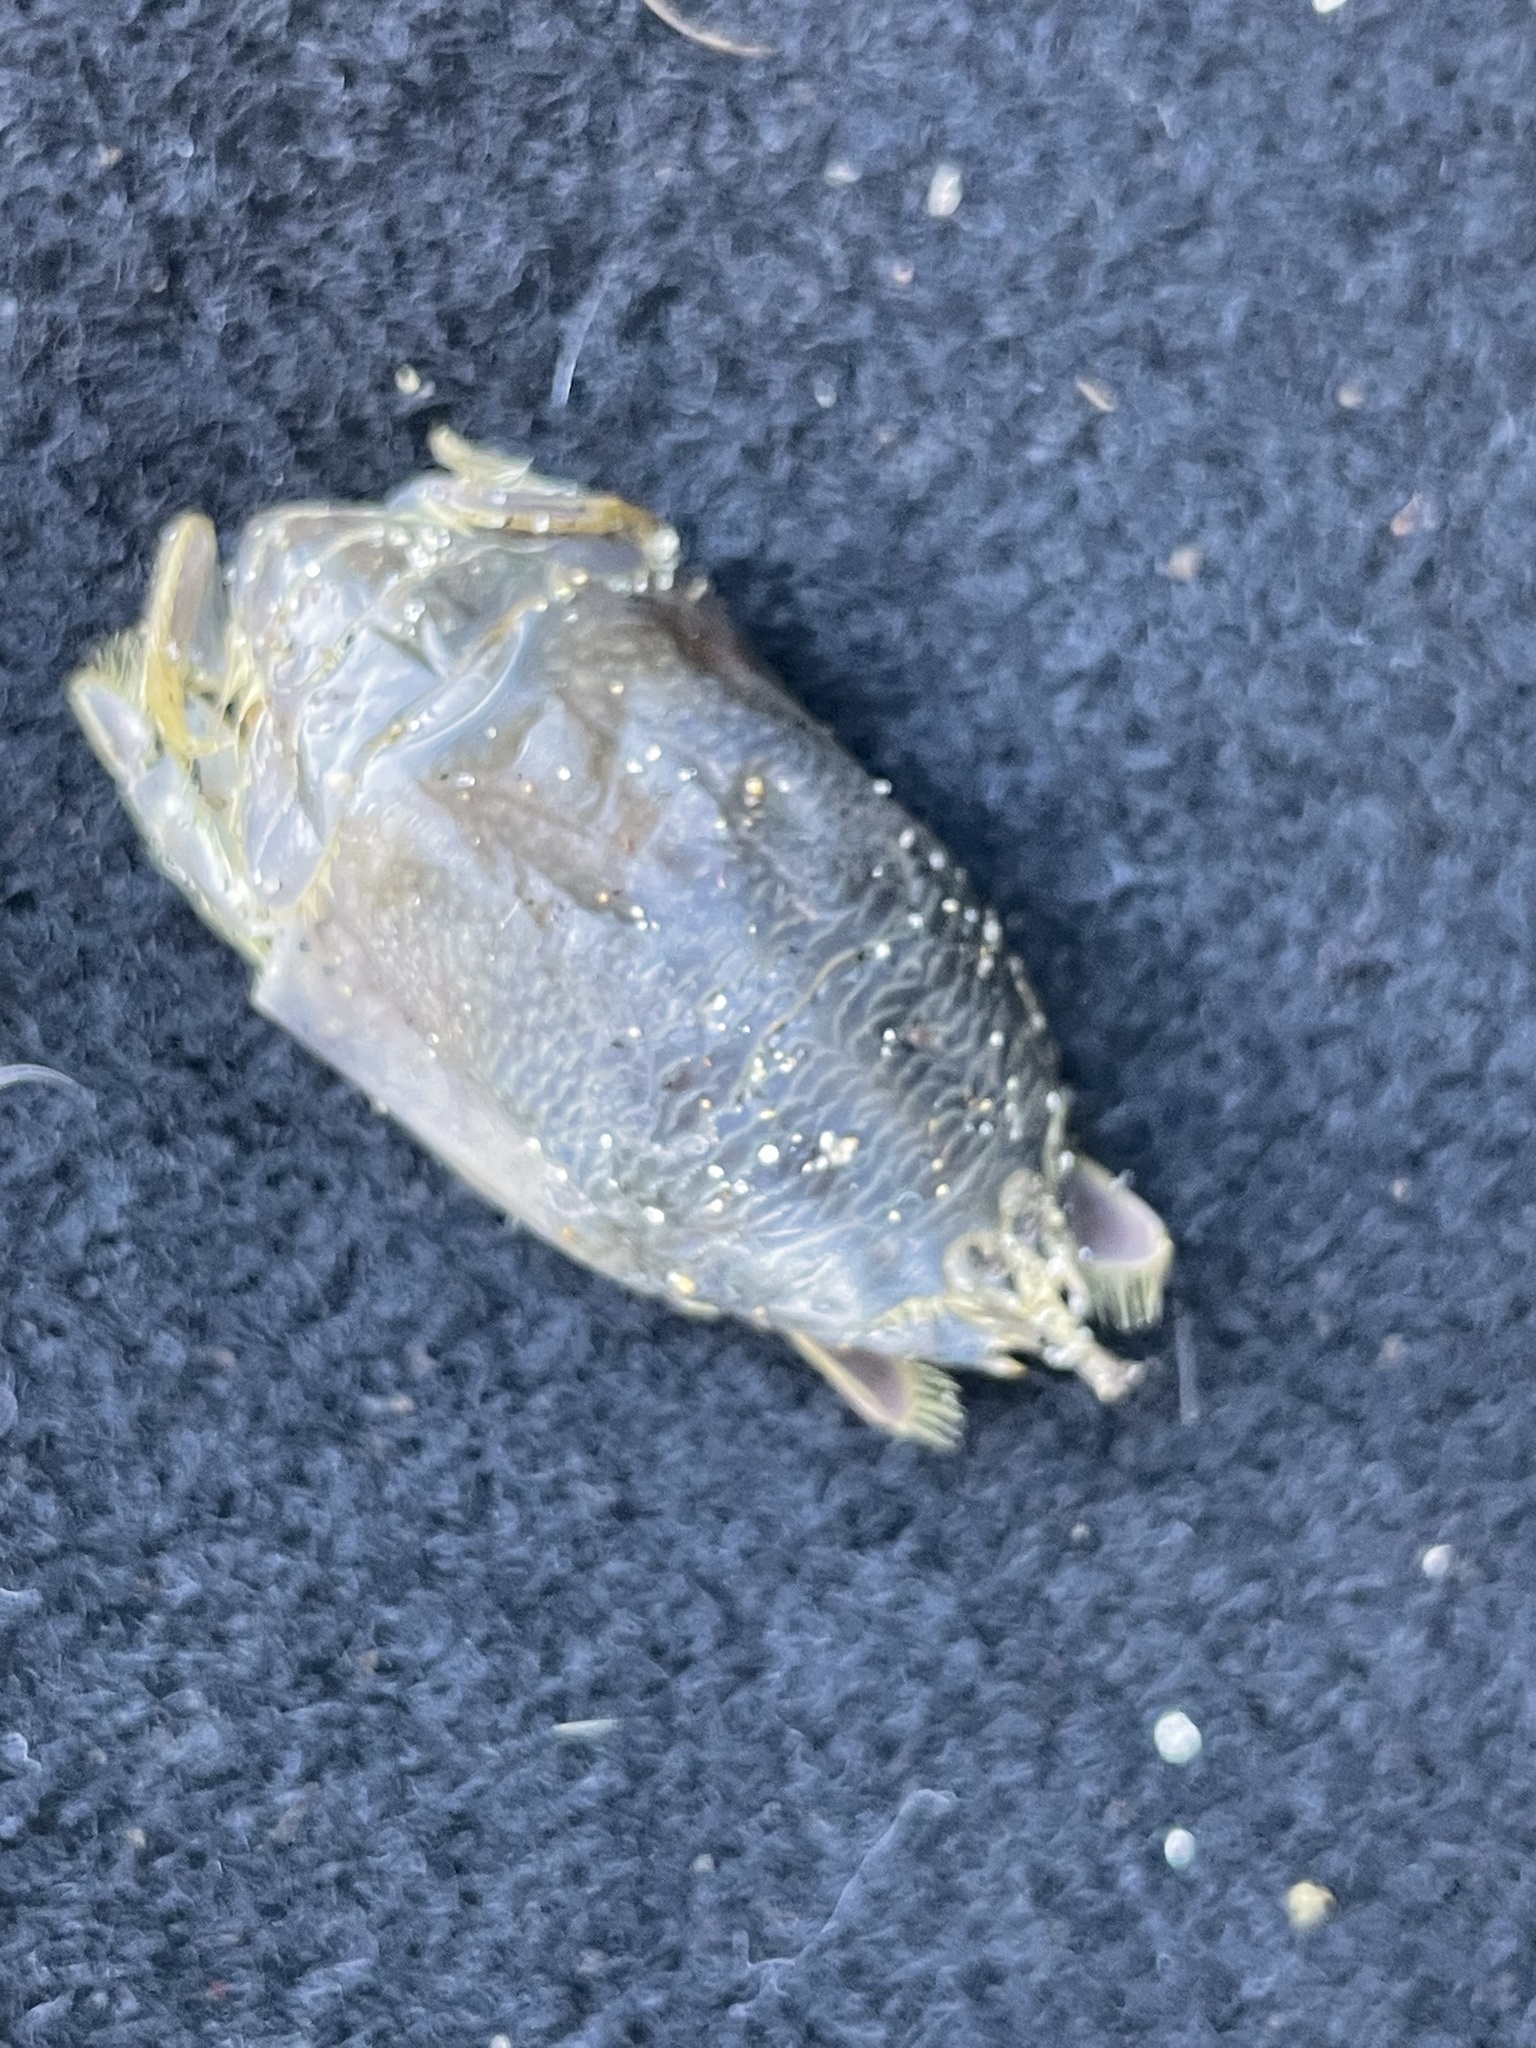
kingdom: Animalia
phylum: Arthropoda
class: Malacostraca
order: Decapoda
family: Hippidae
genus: Emerita
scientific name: Emerita analoga
